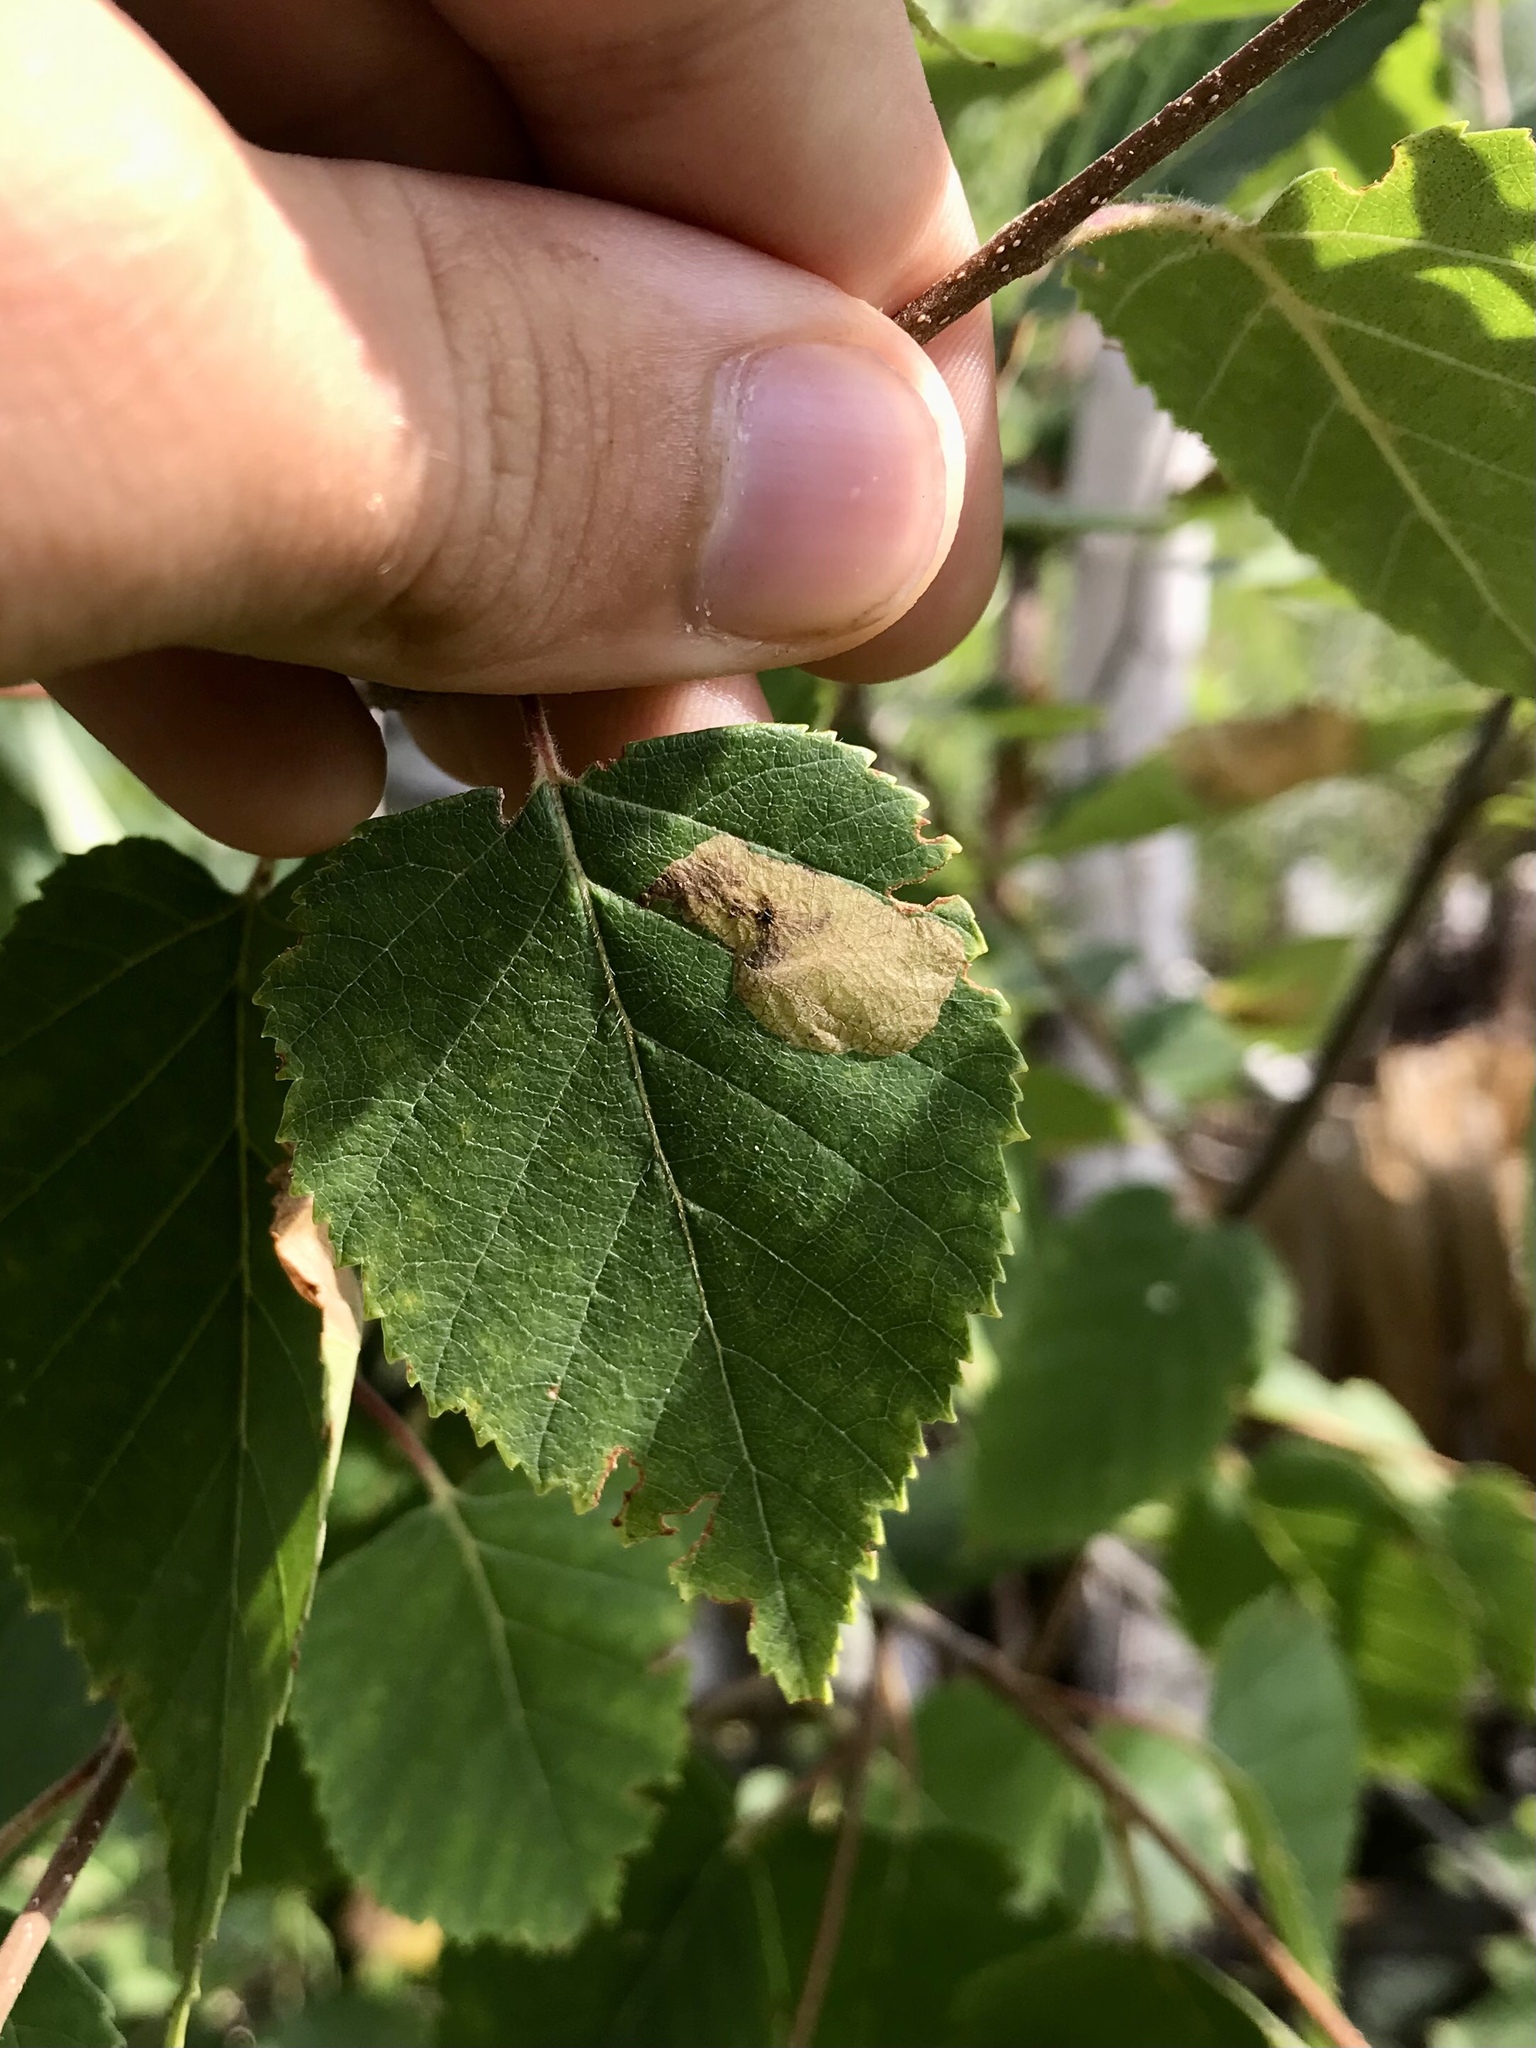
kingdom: Animalia
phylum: Arthropoda
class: Insecta
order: Hymenoptera
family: Tenthredinidae
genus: Profenusa
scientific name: Profenusa thomsoni
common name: Amber-marked birch leafminer
